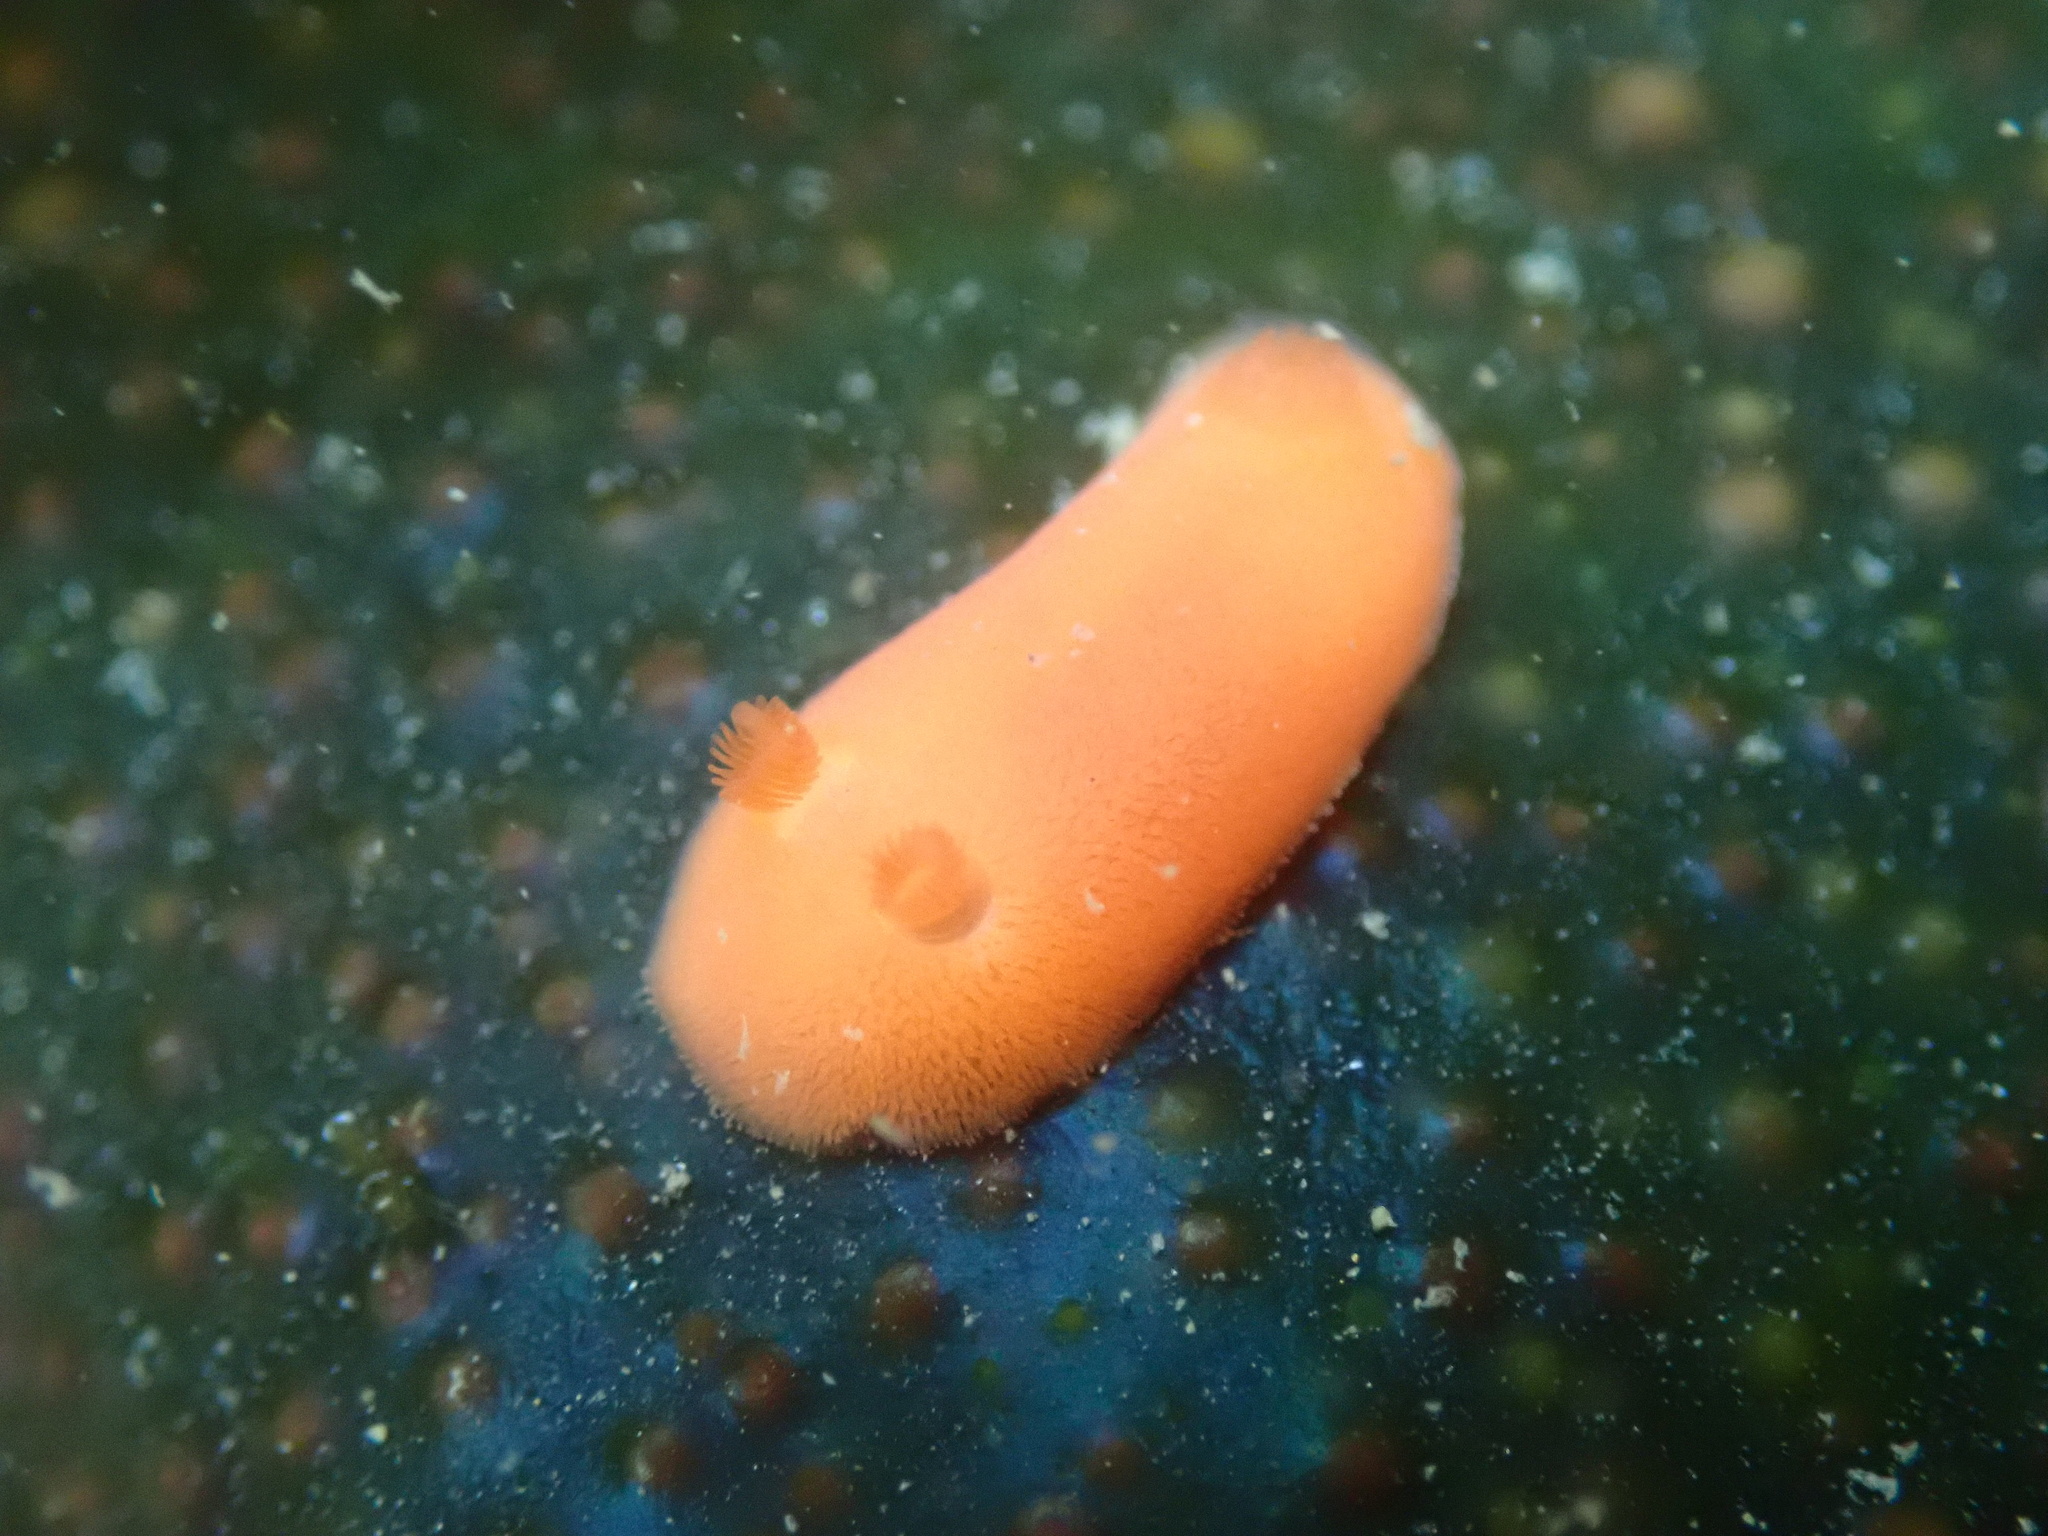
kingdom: Animalia
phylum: Mollusca
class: Gastropoda
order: Nudibranchia
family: Discodorididae
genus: Rostanga
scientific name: Rostanga pulchra
